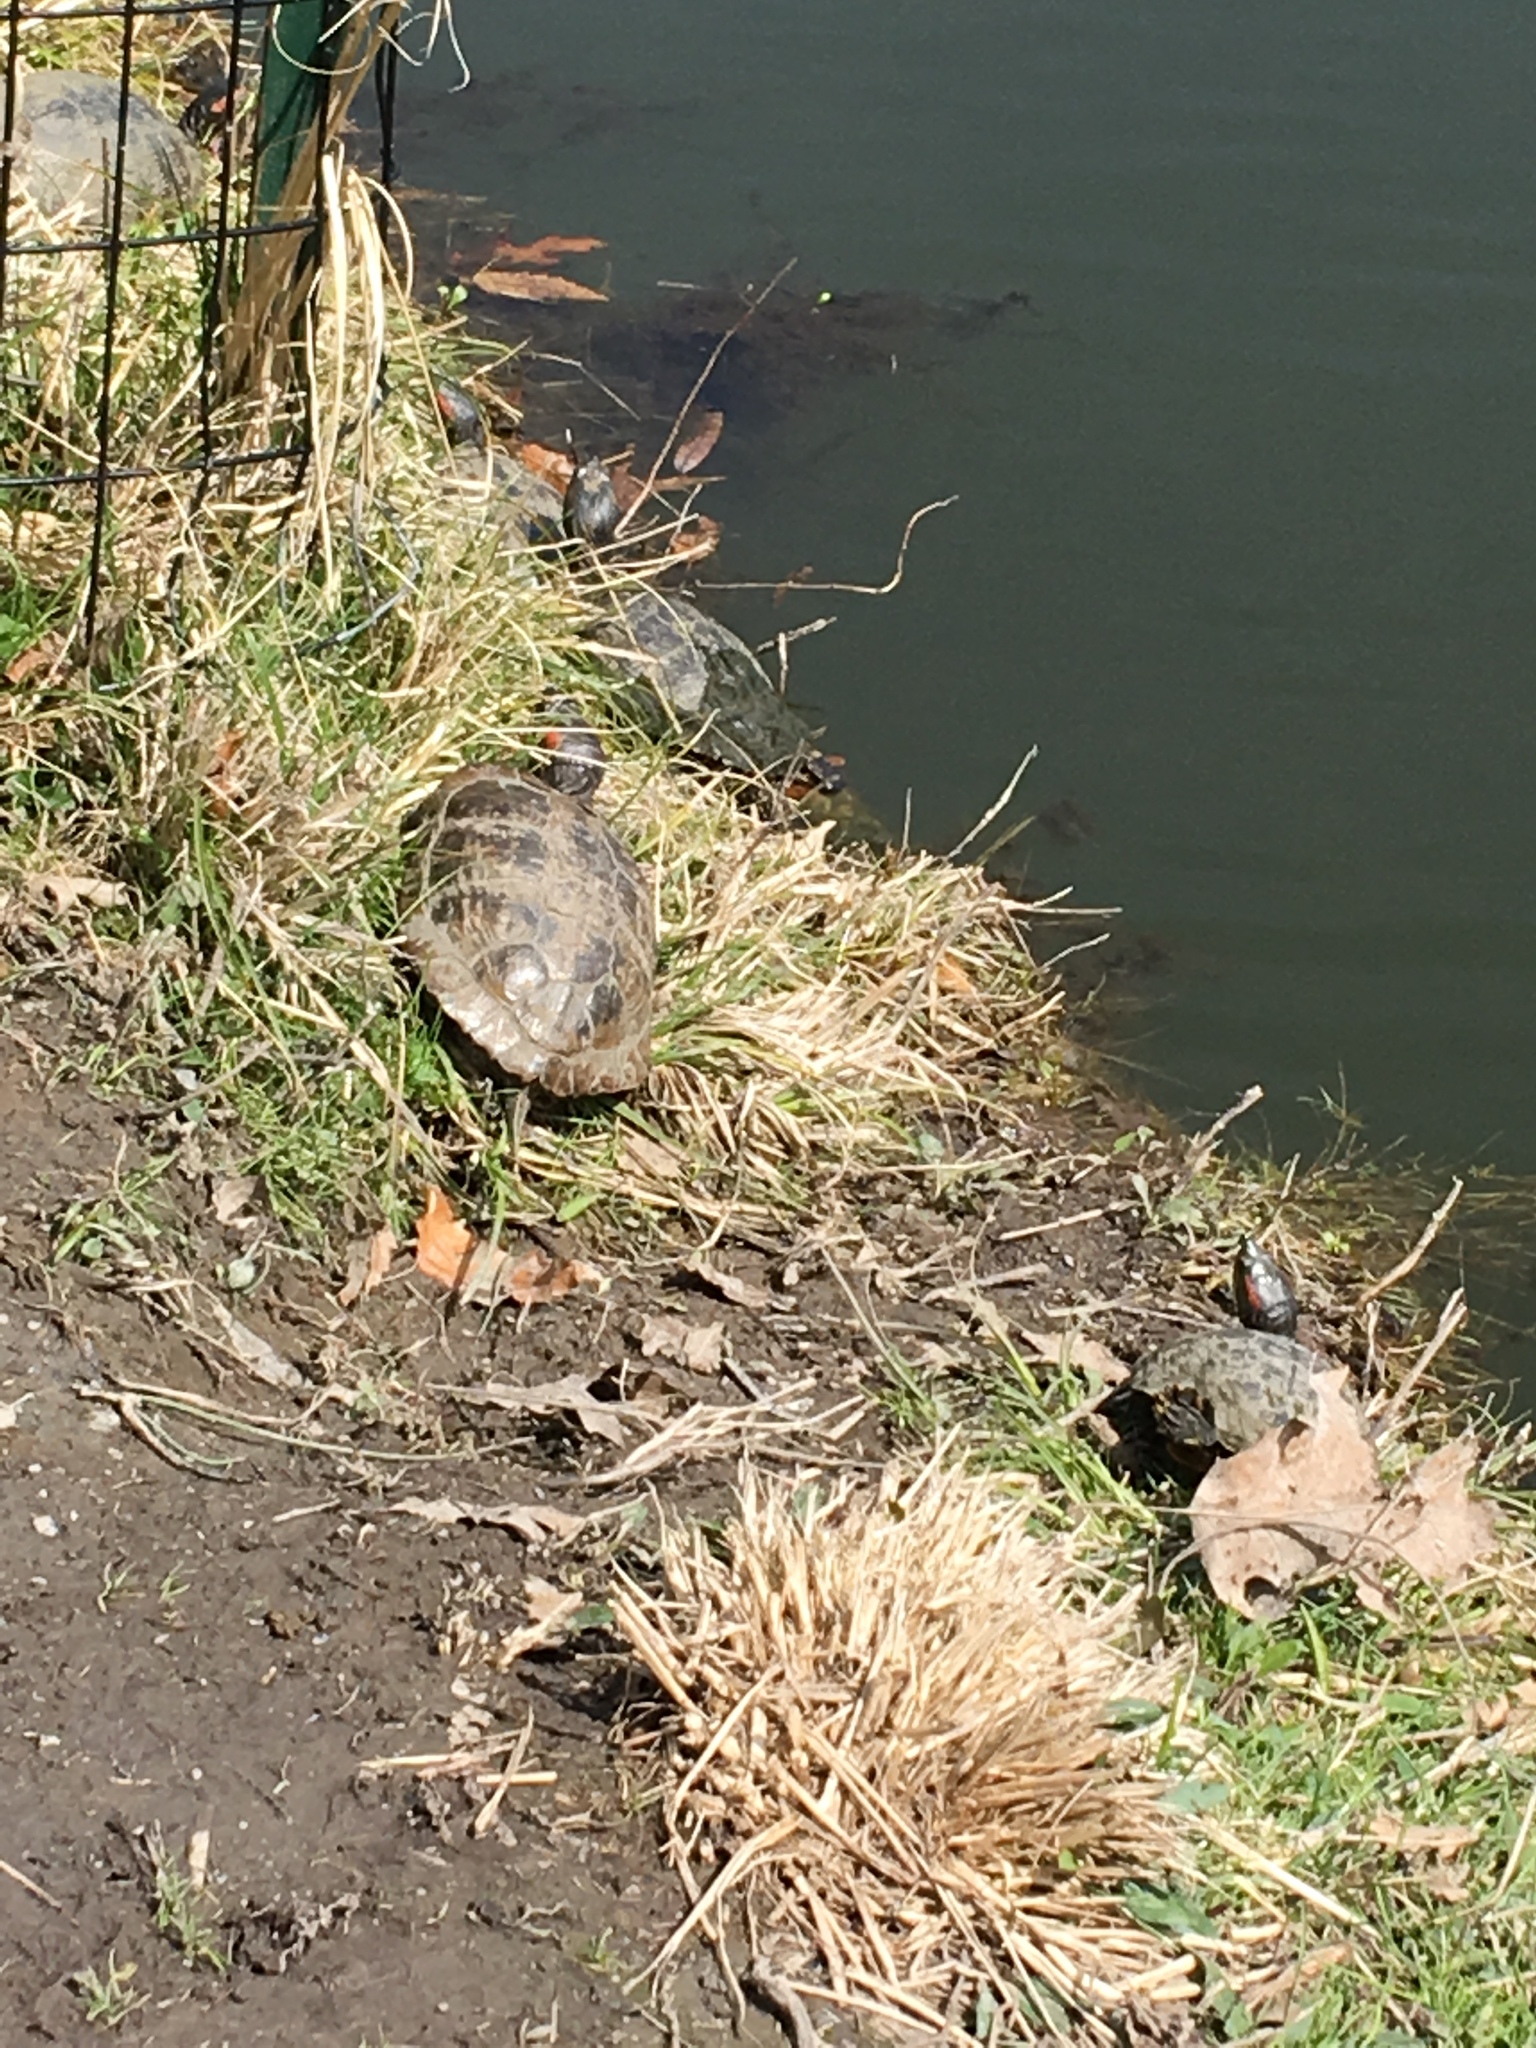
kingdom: Animalia
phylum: Chordata
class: Testudines
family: Emydidae
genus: Trachemys
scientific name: Trachemys scripta
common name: Slider
